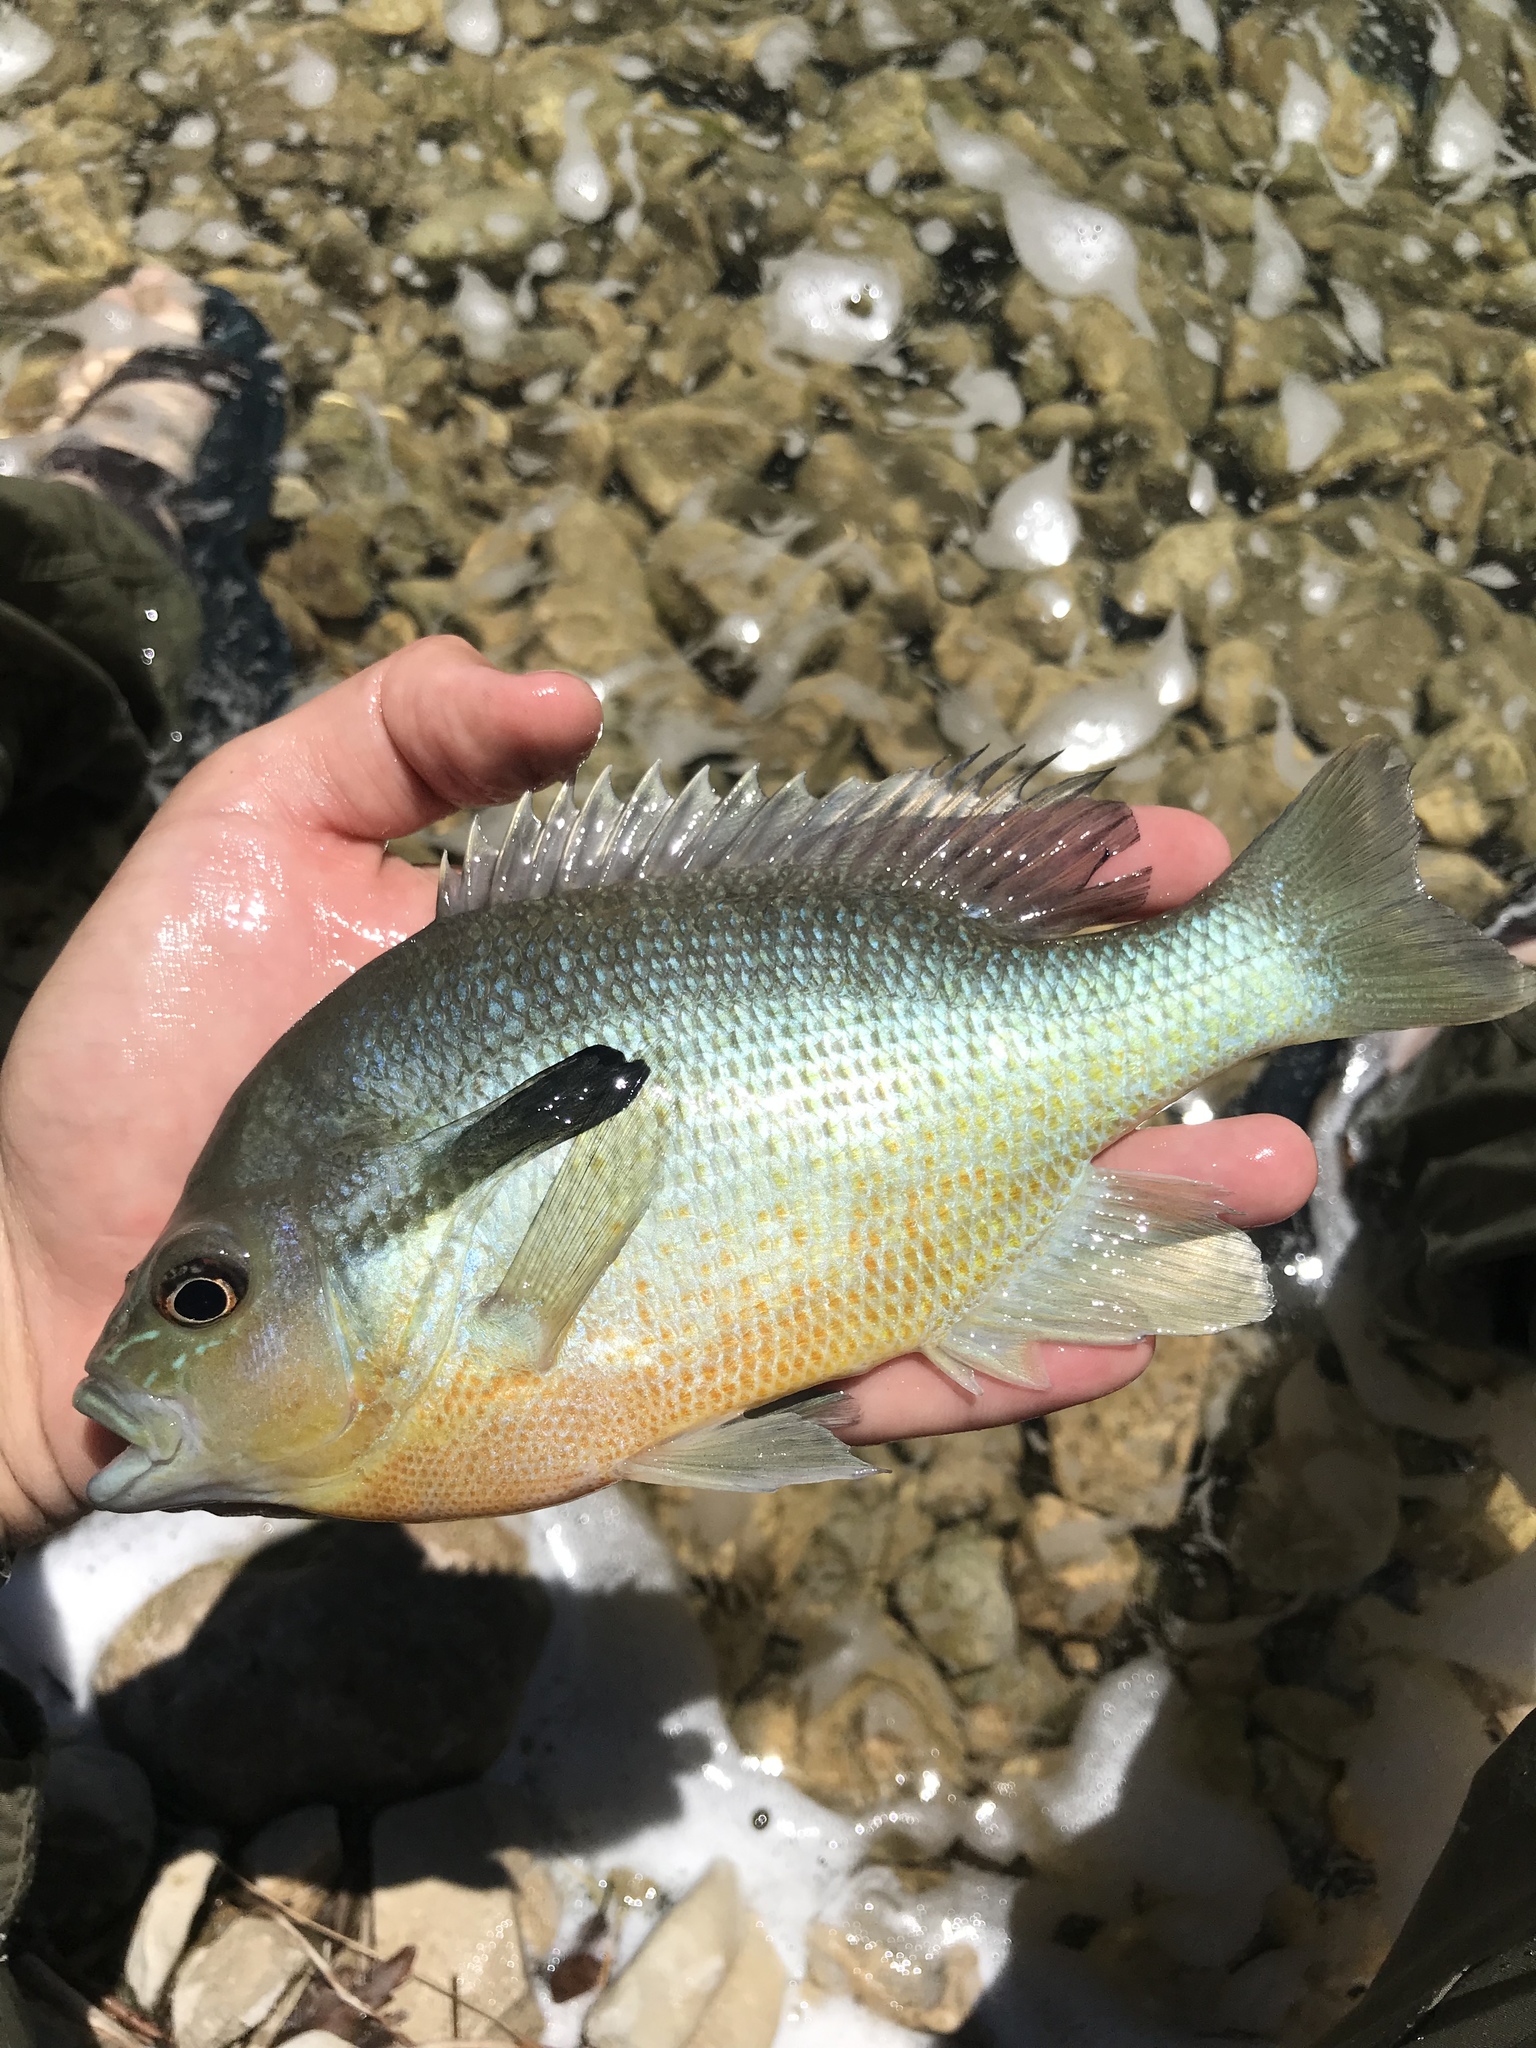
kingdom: Animalia
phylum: Chordata
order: Perciformes
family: Centrarchidae
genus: Lepomis
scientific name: Lepomis auritus
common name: Redbreast sunfish
